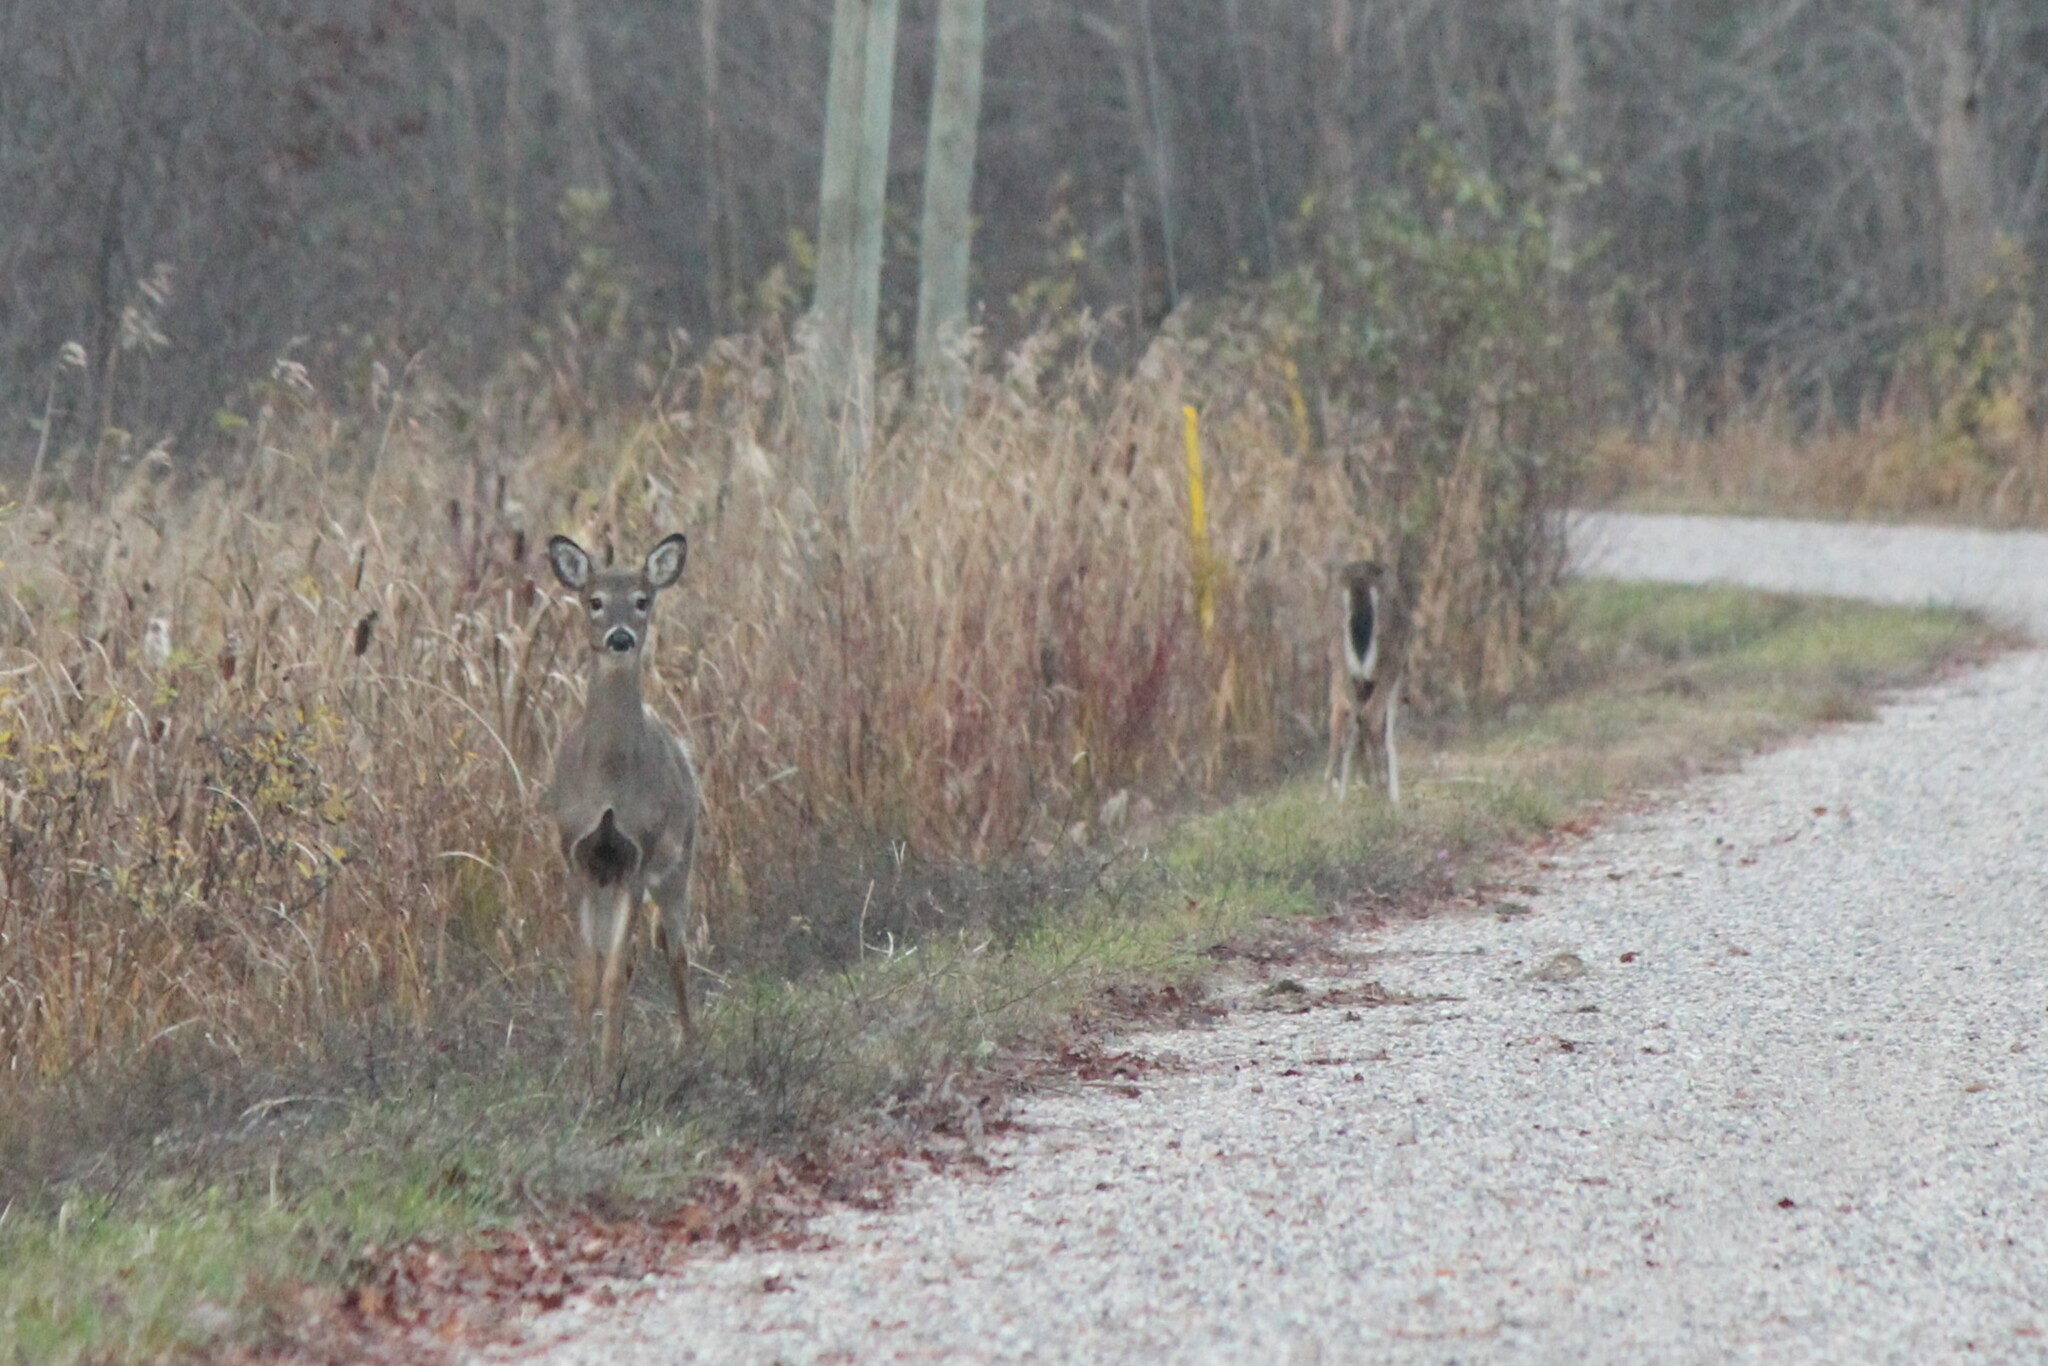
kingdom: Animalia
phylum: Chordata
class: Mammalia
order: Artiodactyla
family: Cervidae
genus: Odocoileus
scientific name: Odocoileus virginianus
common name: White-tailed deer
